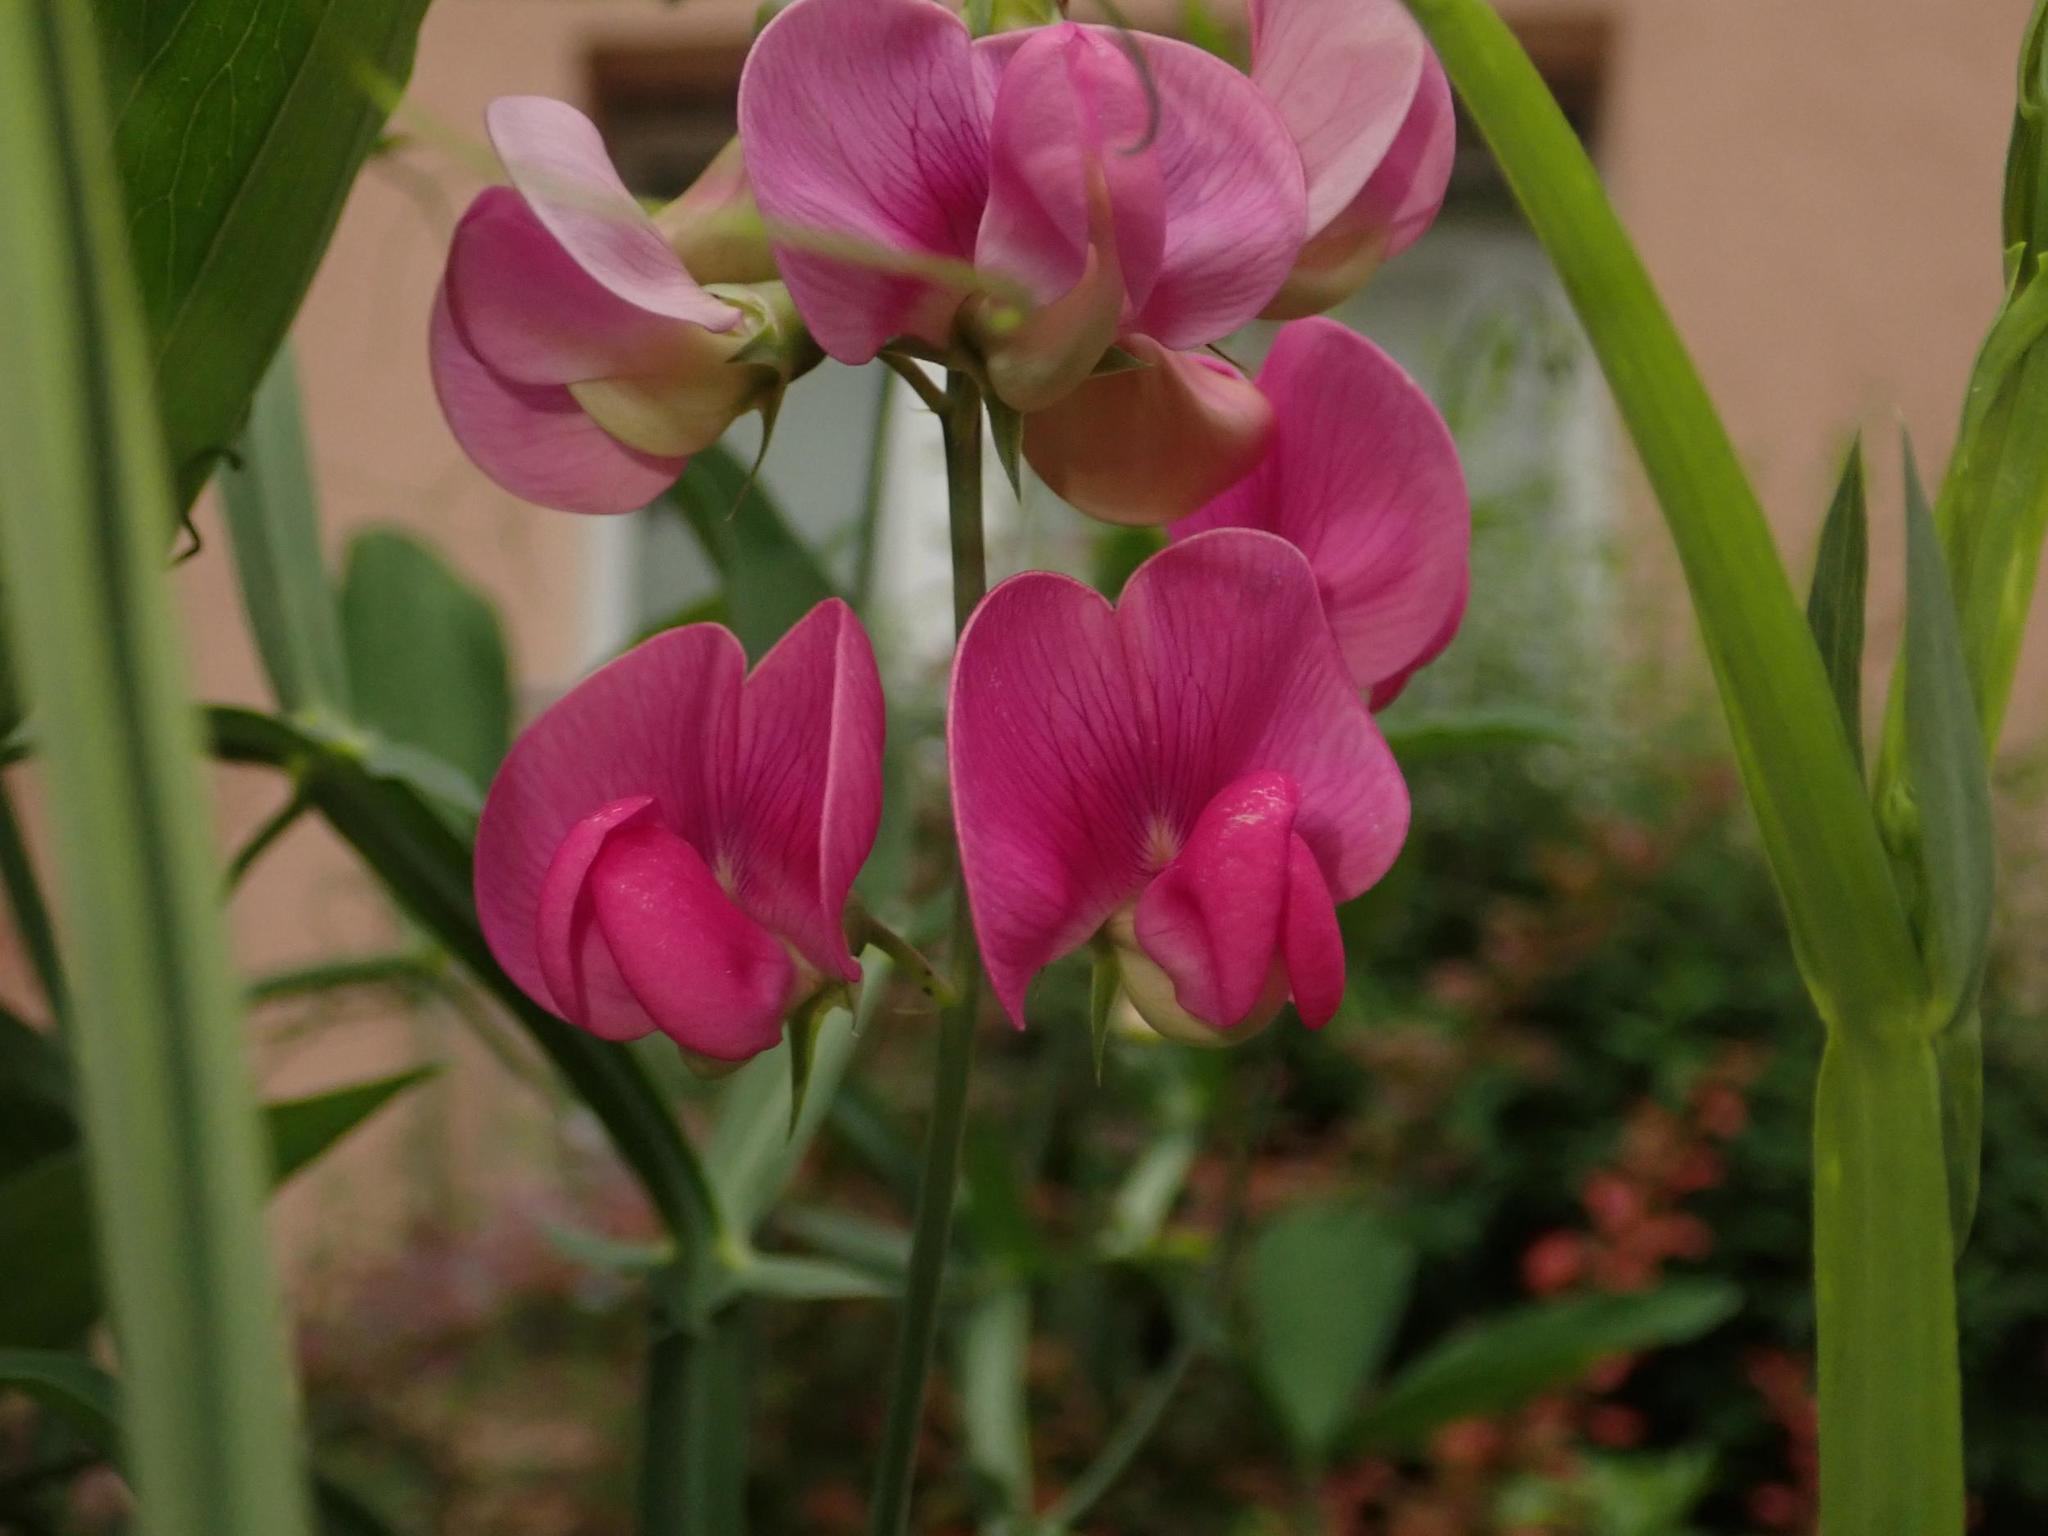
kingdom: Plantae
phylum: Tracheophyta
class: Magnoliopsida
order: Fabales
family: Fabaceae
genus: Lathyrus
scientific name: Lathyrus latifolius
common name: Perennial pea
